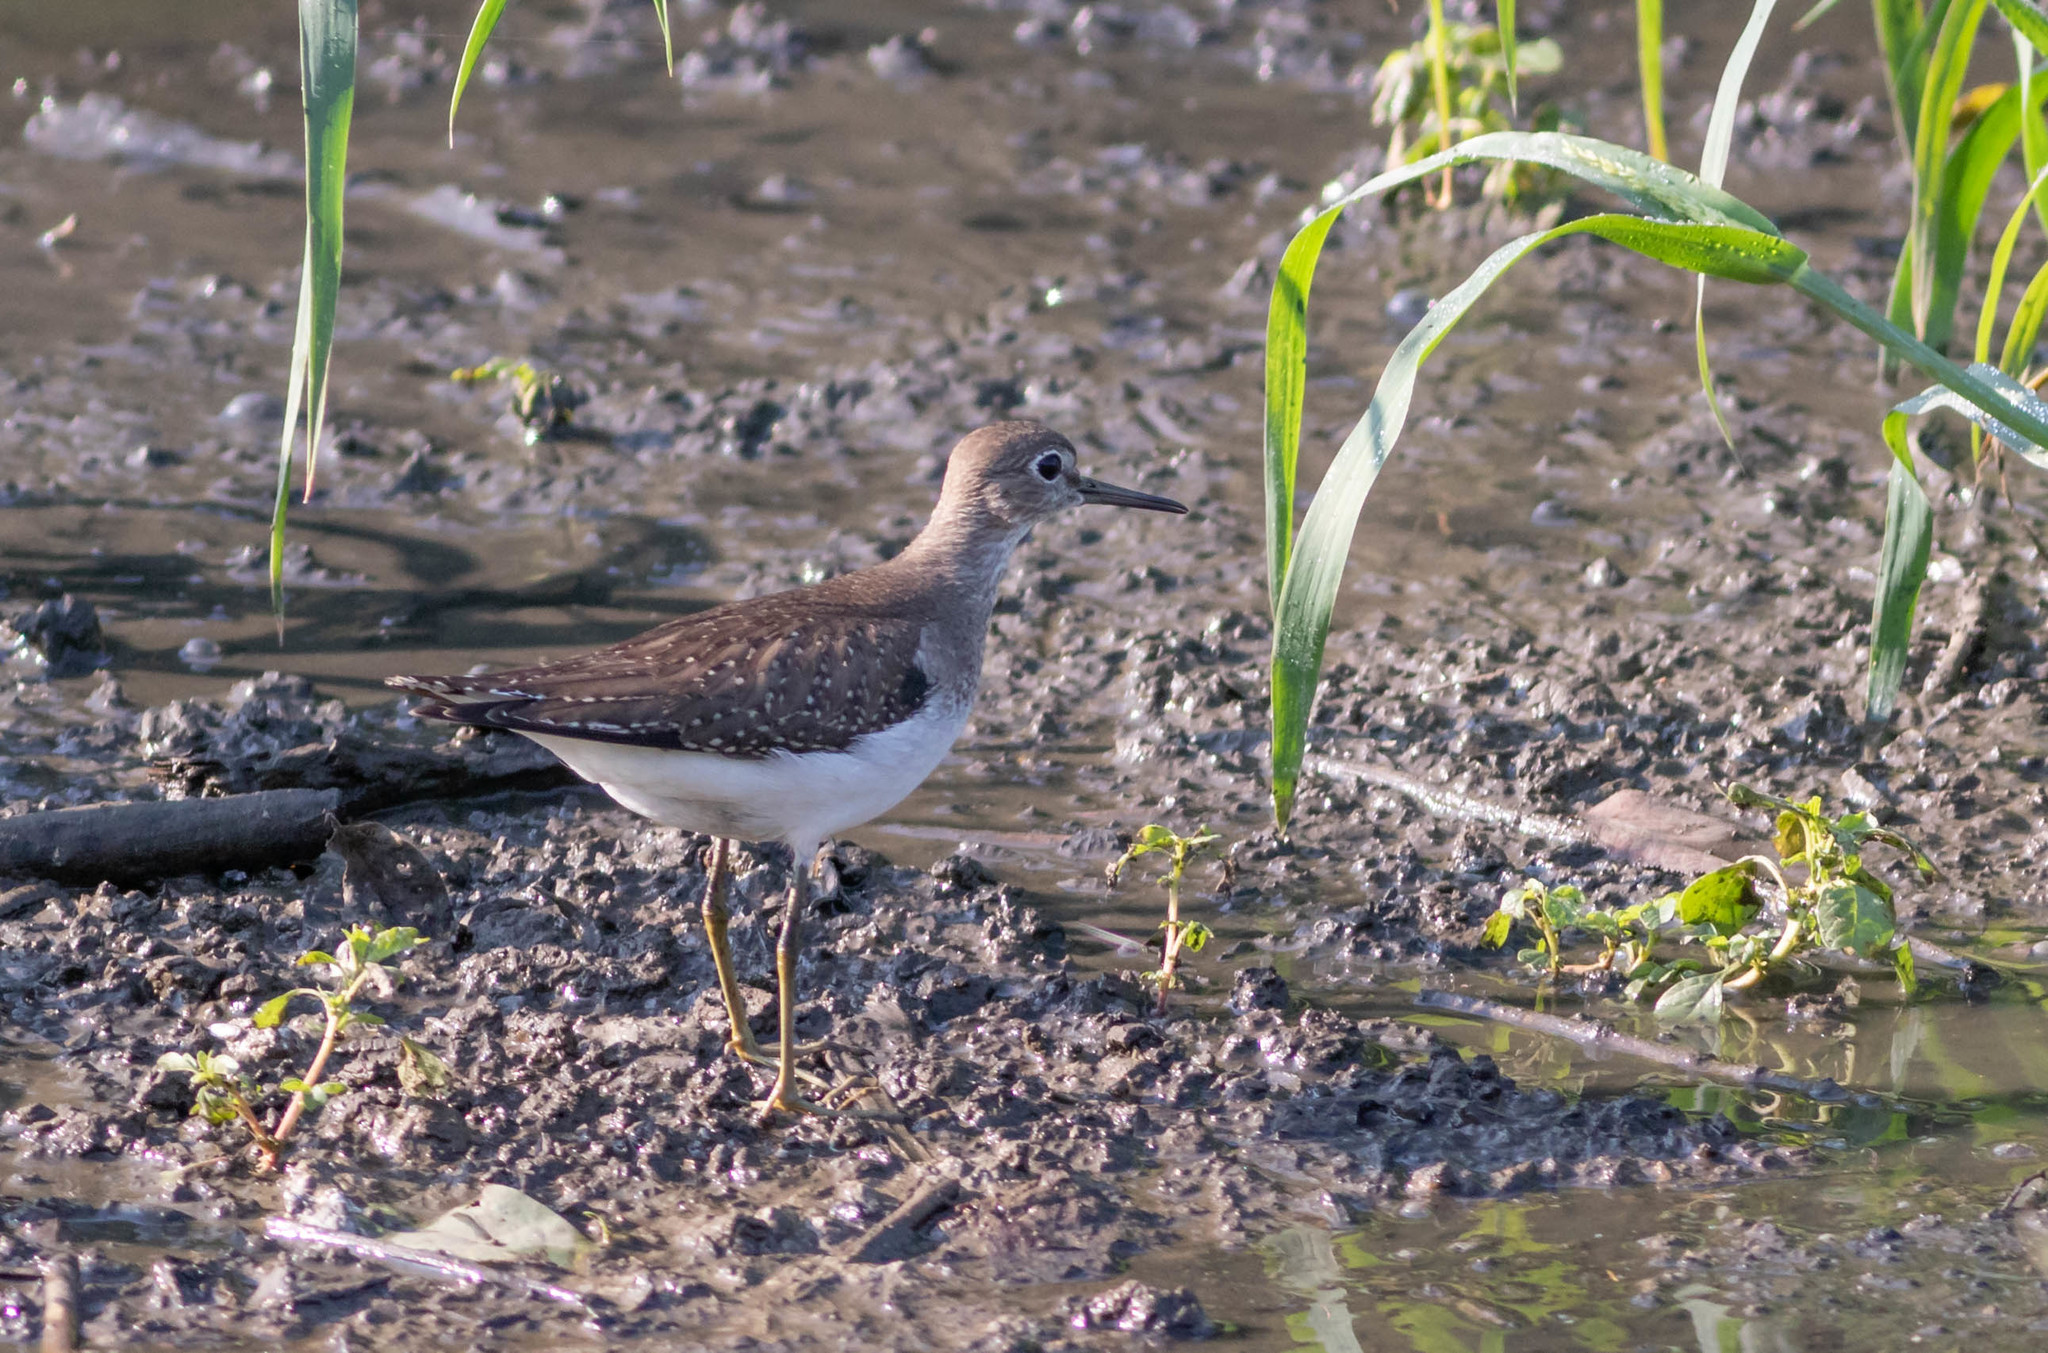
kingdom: Animalia
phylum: Chordata
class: Aves
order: Charadriiformes
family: Scolopacidae
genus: Tringa
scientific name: Tringa solitaria
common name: Solitary sandpiper
